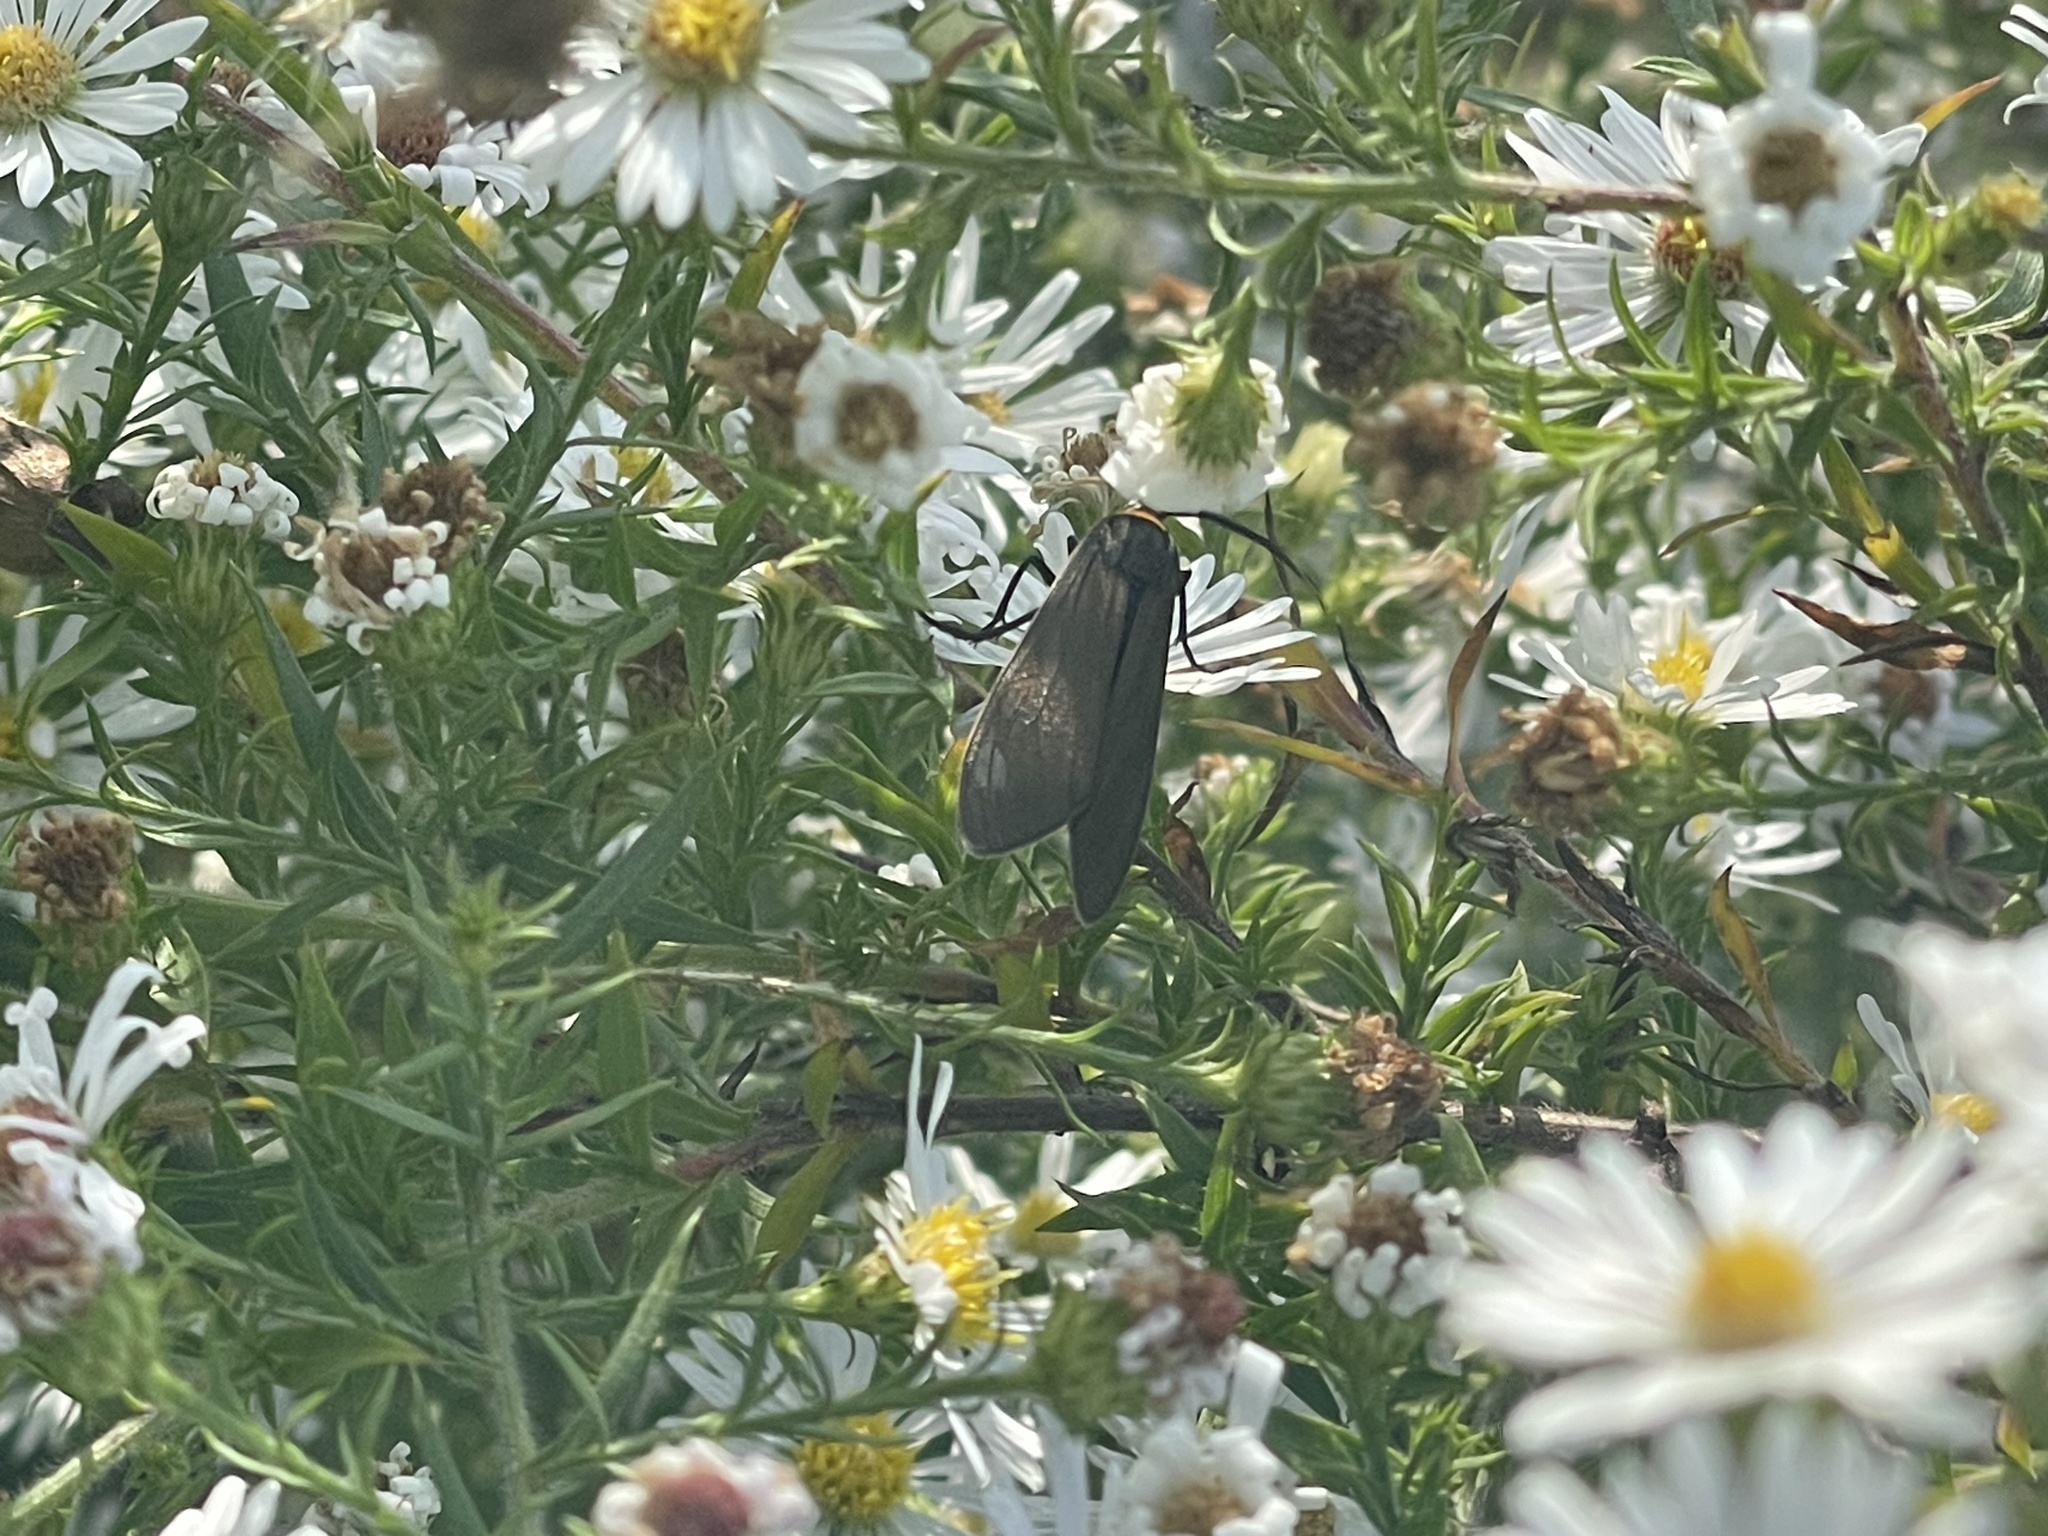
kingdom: Animalia
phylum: Arthropoda
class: Insecta
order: Lepidoptera
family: Erebidae
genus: Cisseps
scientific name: Cisseps fulvicollis
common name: Yellow-collared scape moth
